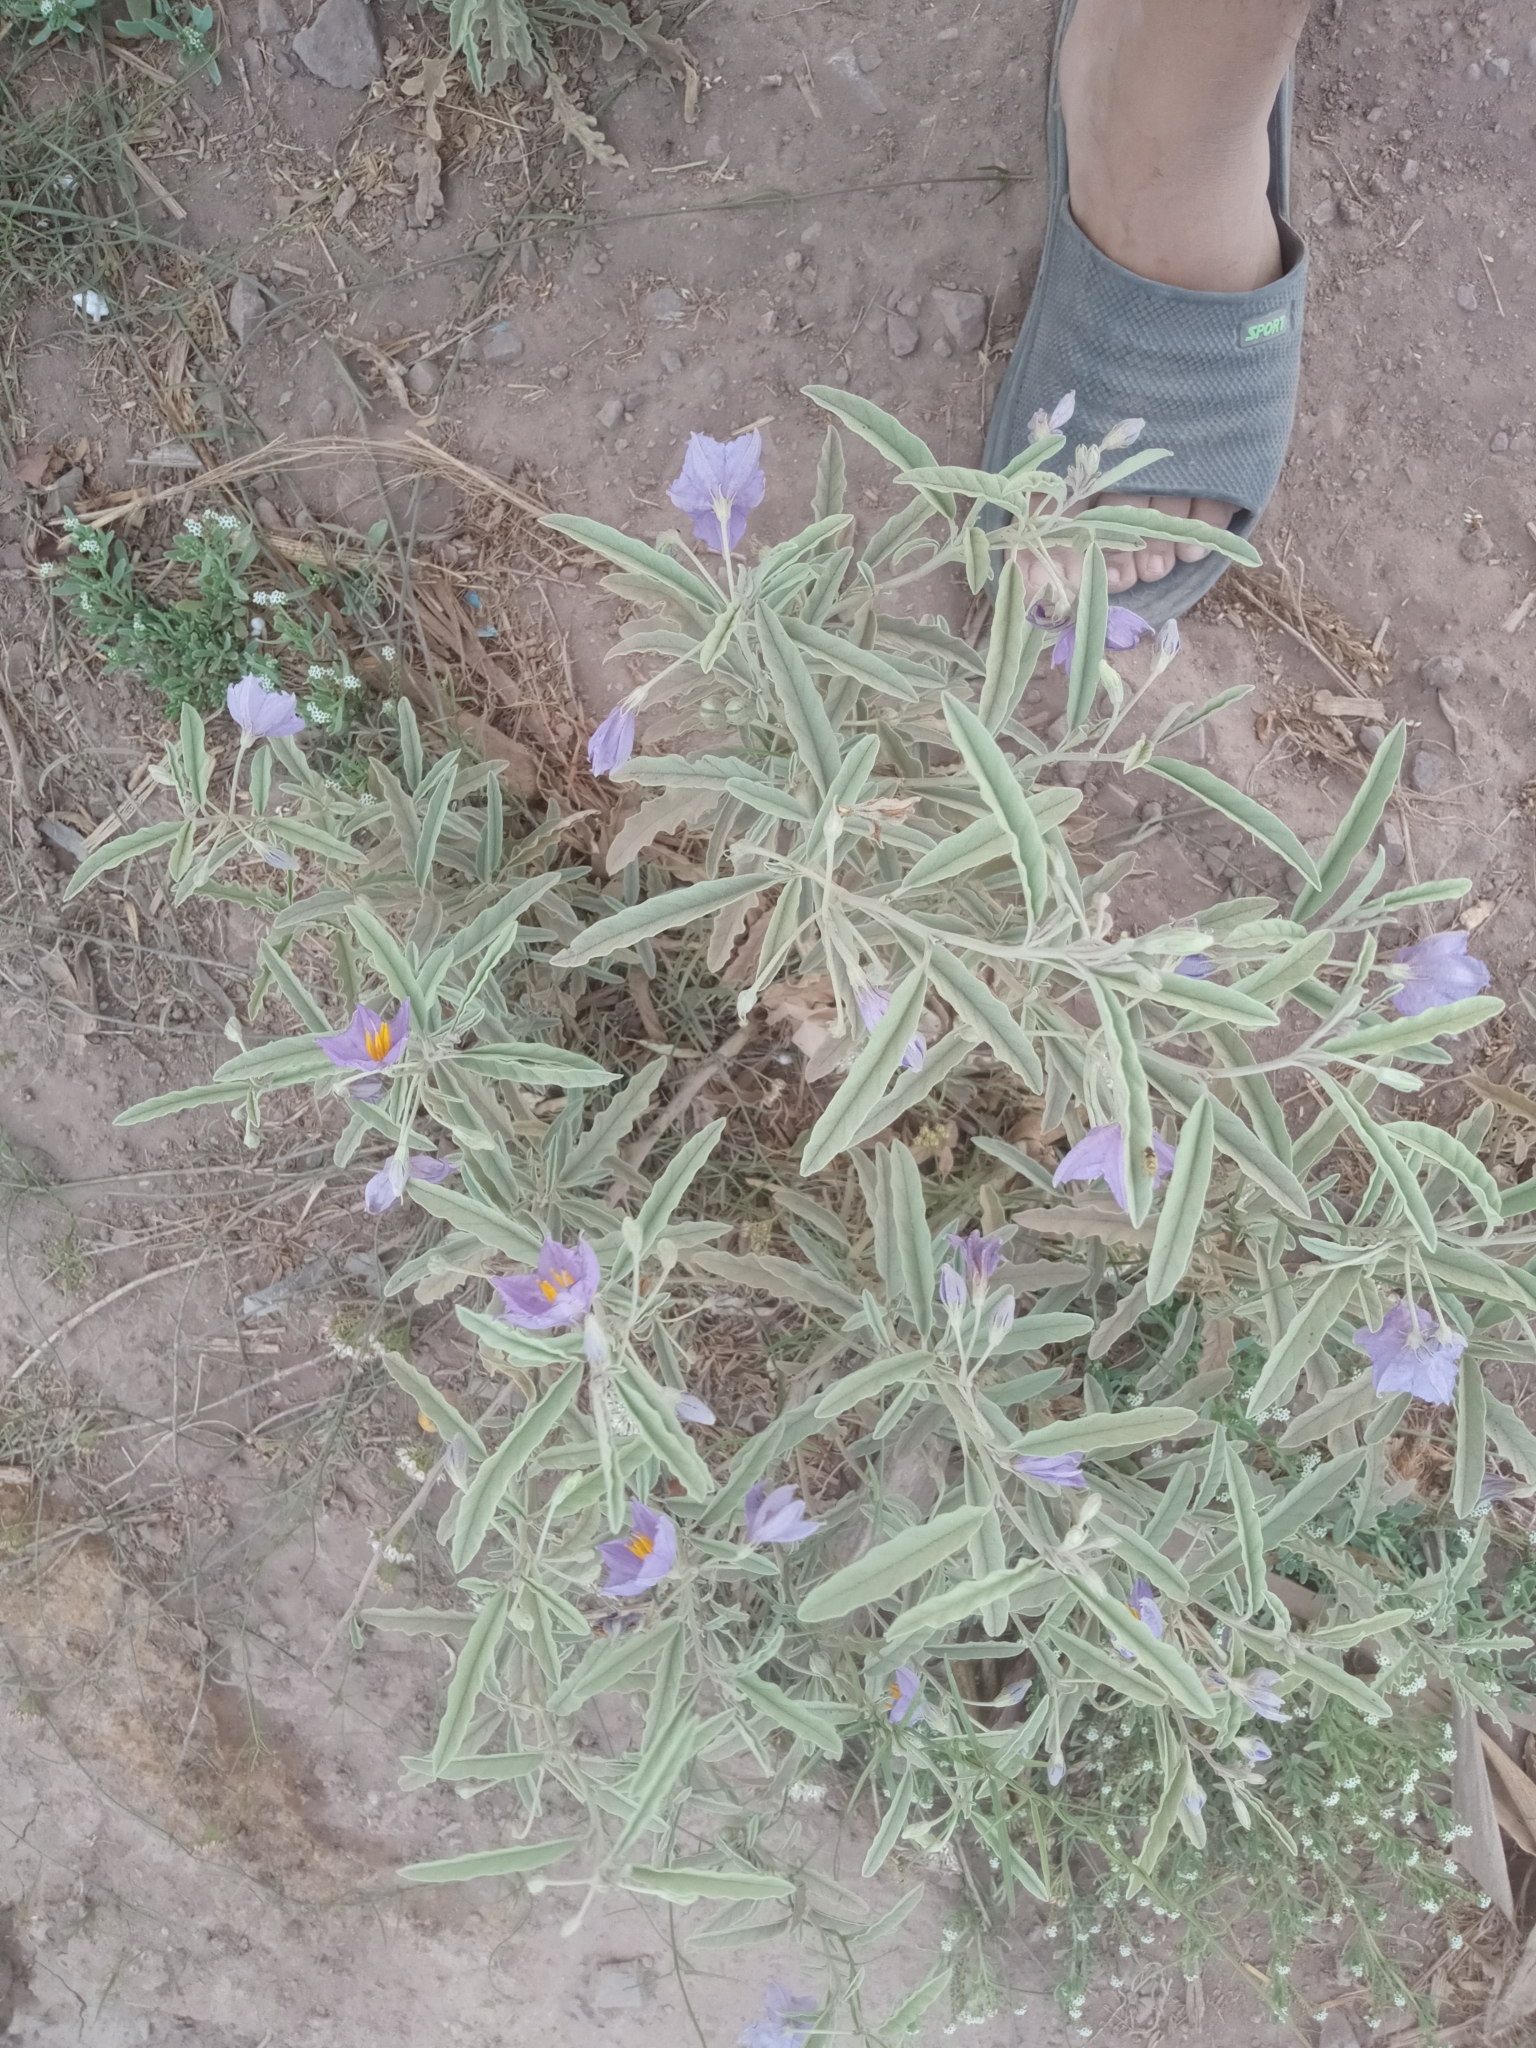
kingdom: Plantae
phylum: Tracheophyta
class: Magnoliopsida
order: Solanales
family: Solanaceae
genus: Solanum
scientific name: Solanum elaeagnifolium
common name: Silverleaf nightshade
